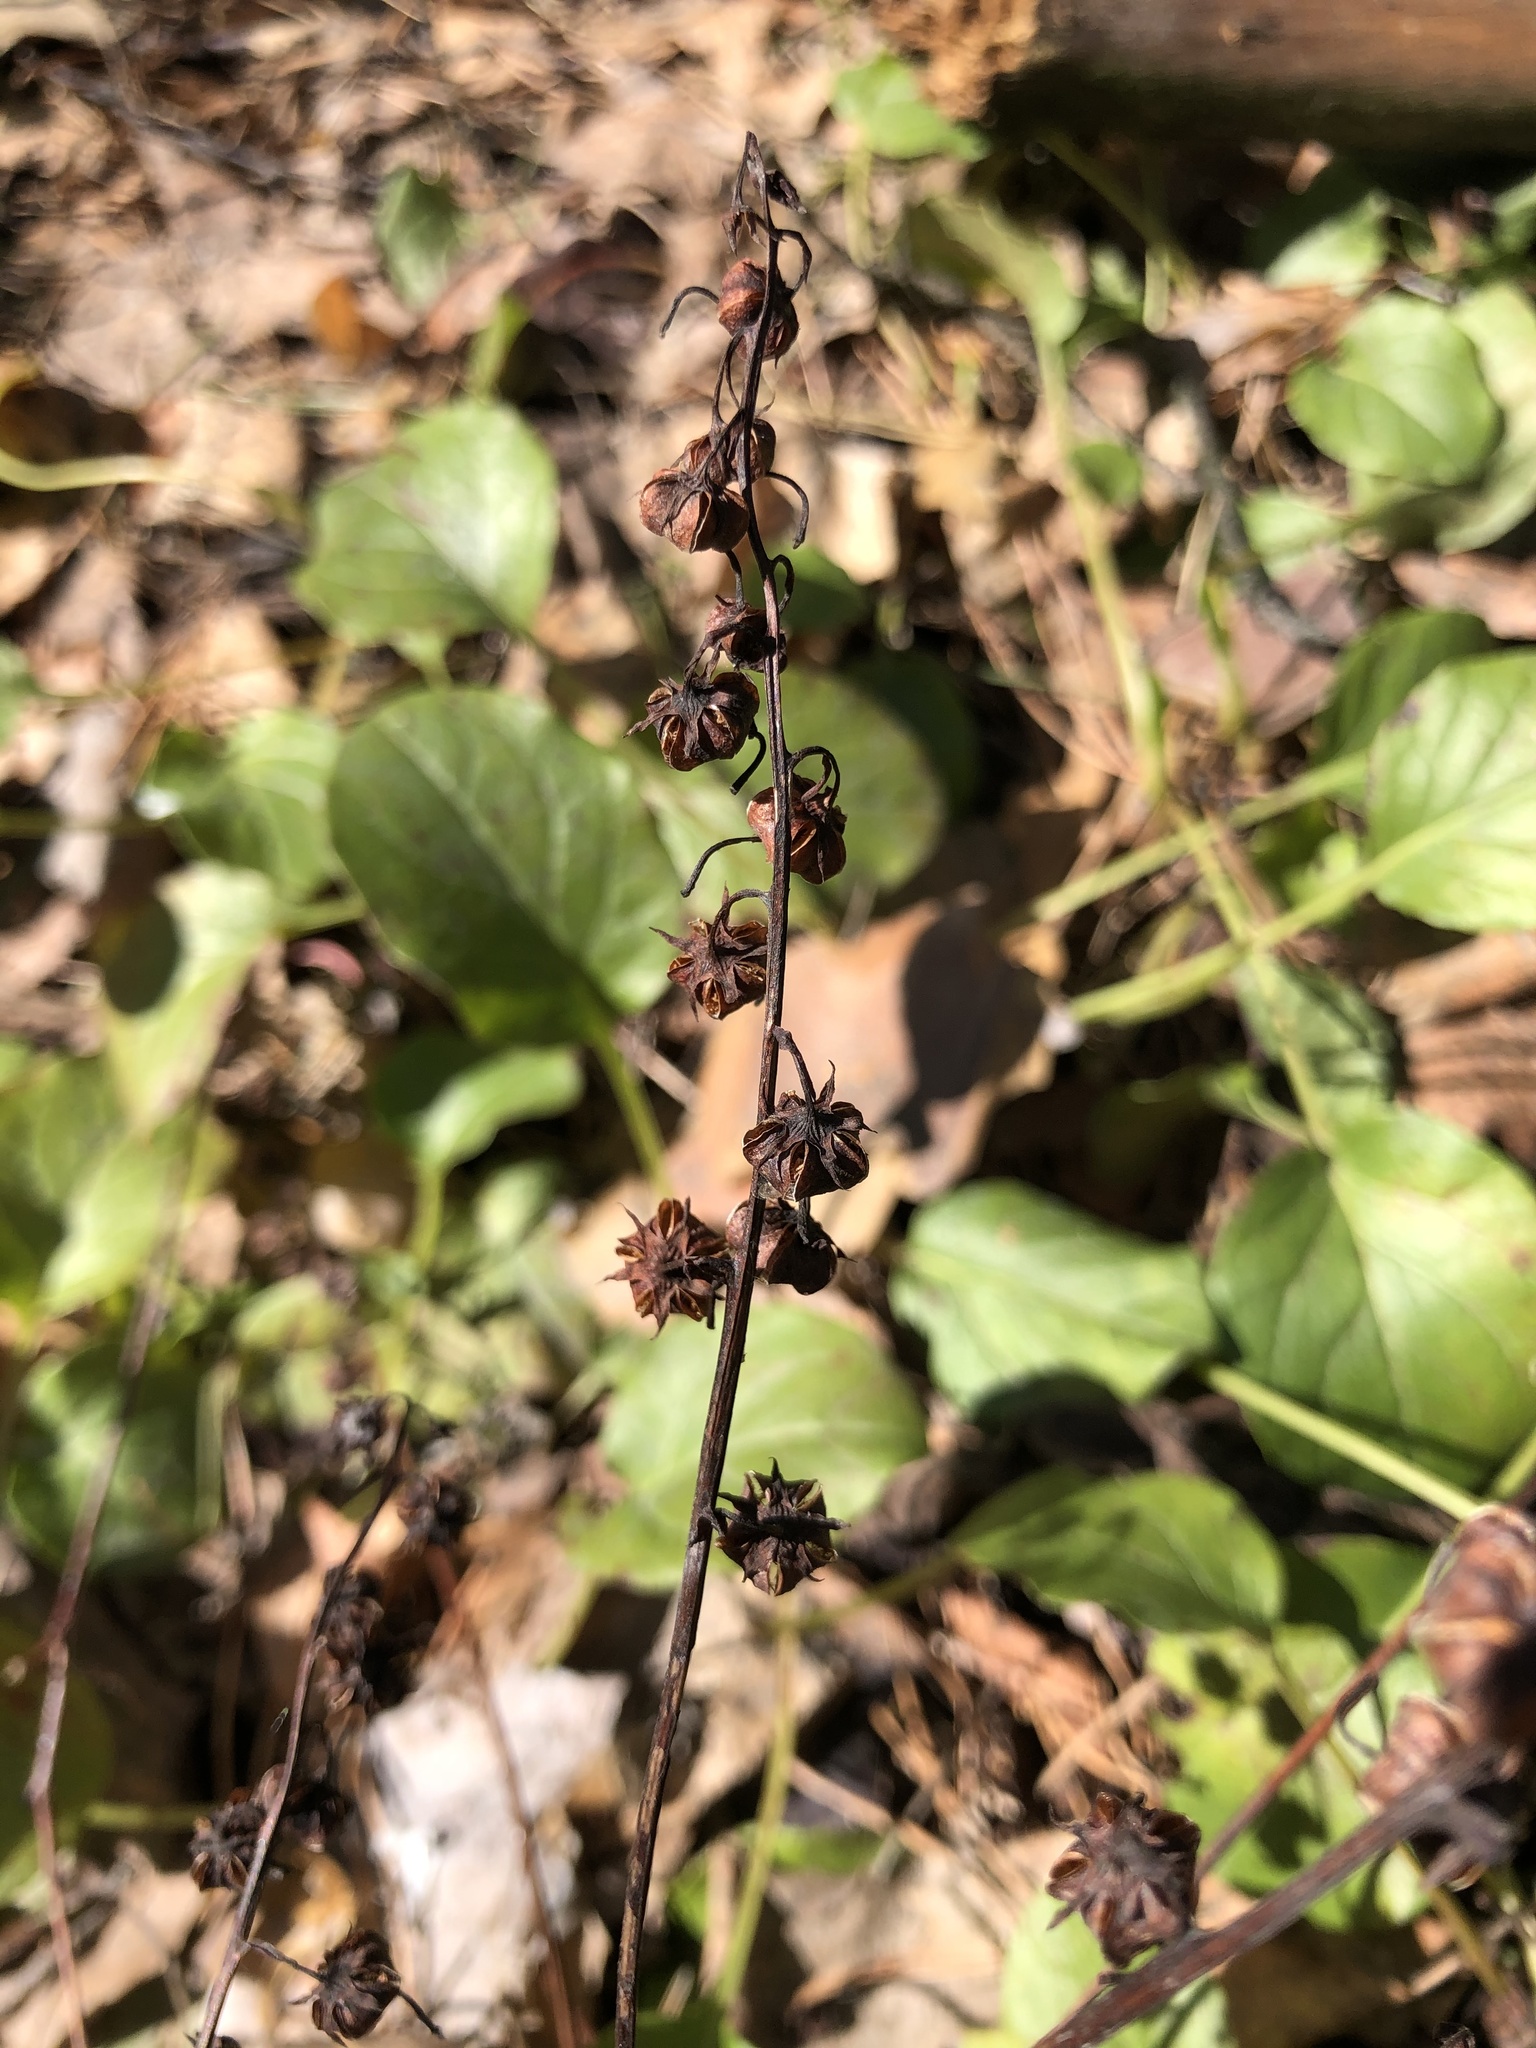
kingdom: Plantae
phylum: Tracheophyta
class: Magnoliopsida
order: Ericales
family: Ericaceae
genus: Pyrola
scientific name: Pyrola rotundifolia
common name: Round-leaved wintergreen
